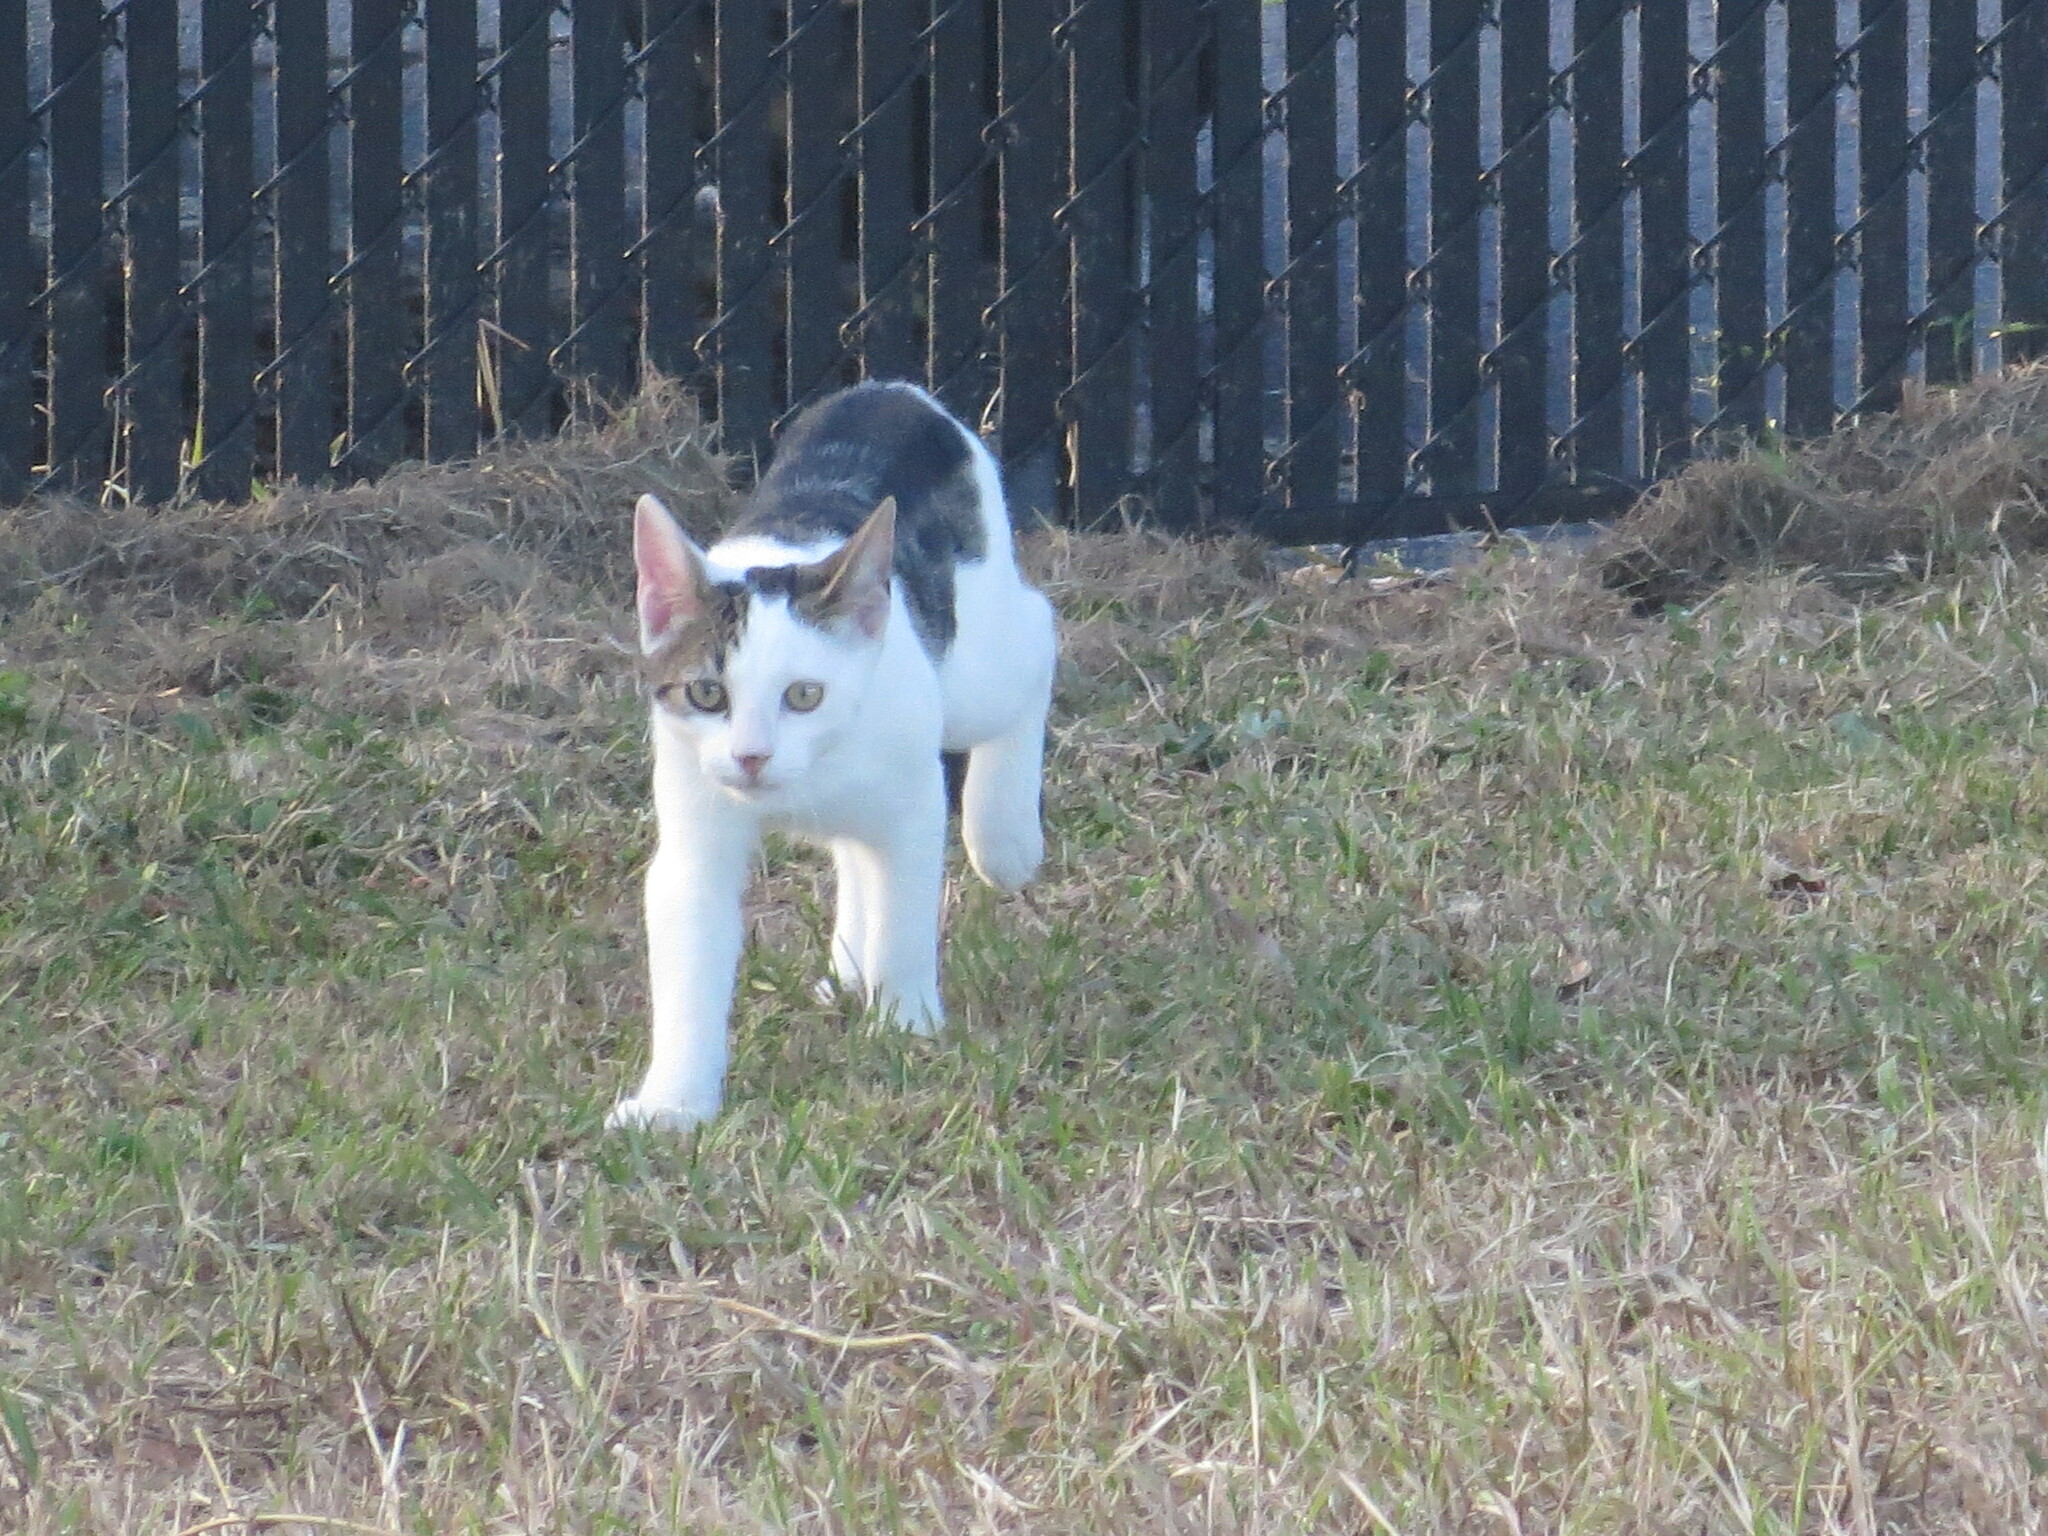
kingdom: Animalia
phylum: Chordata
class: Mammalia
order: Carnivora
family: Felidae
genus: Felis
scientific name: Felis catus
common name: Domestic cat
